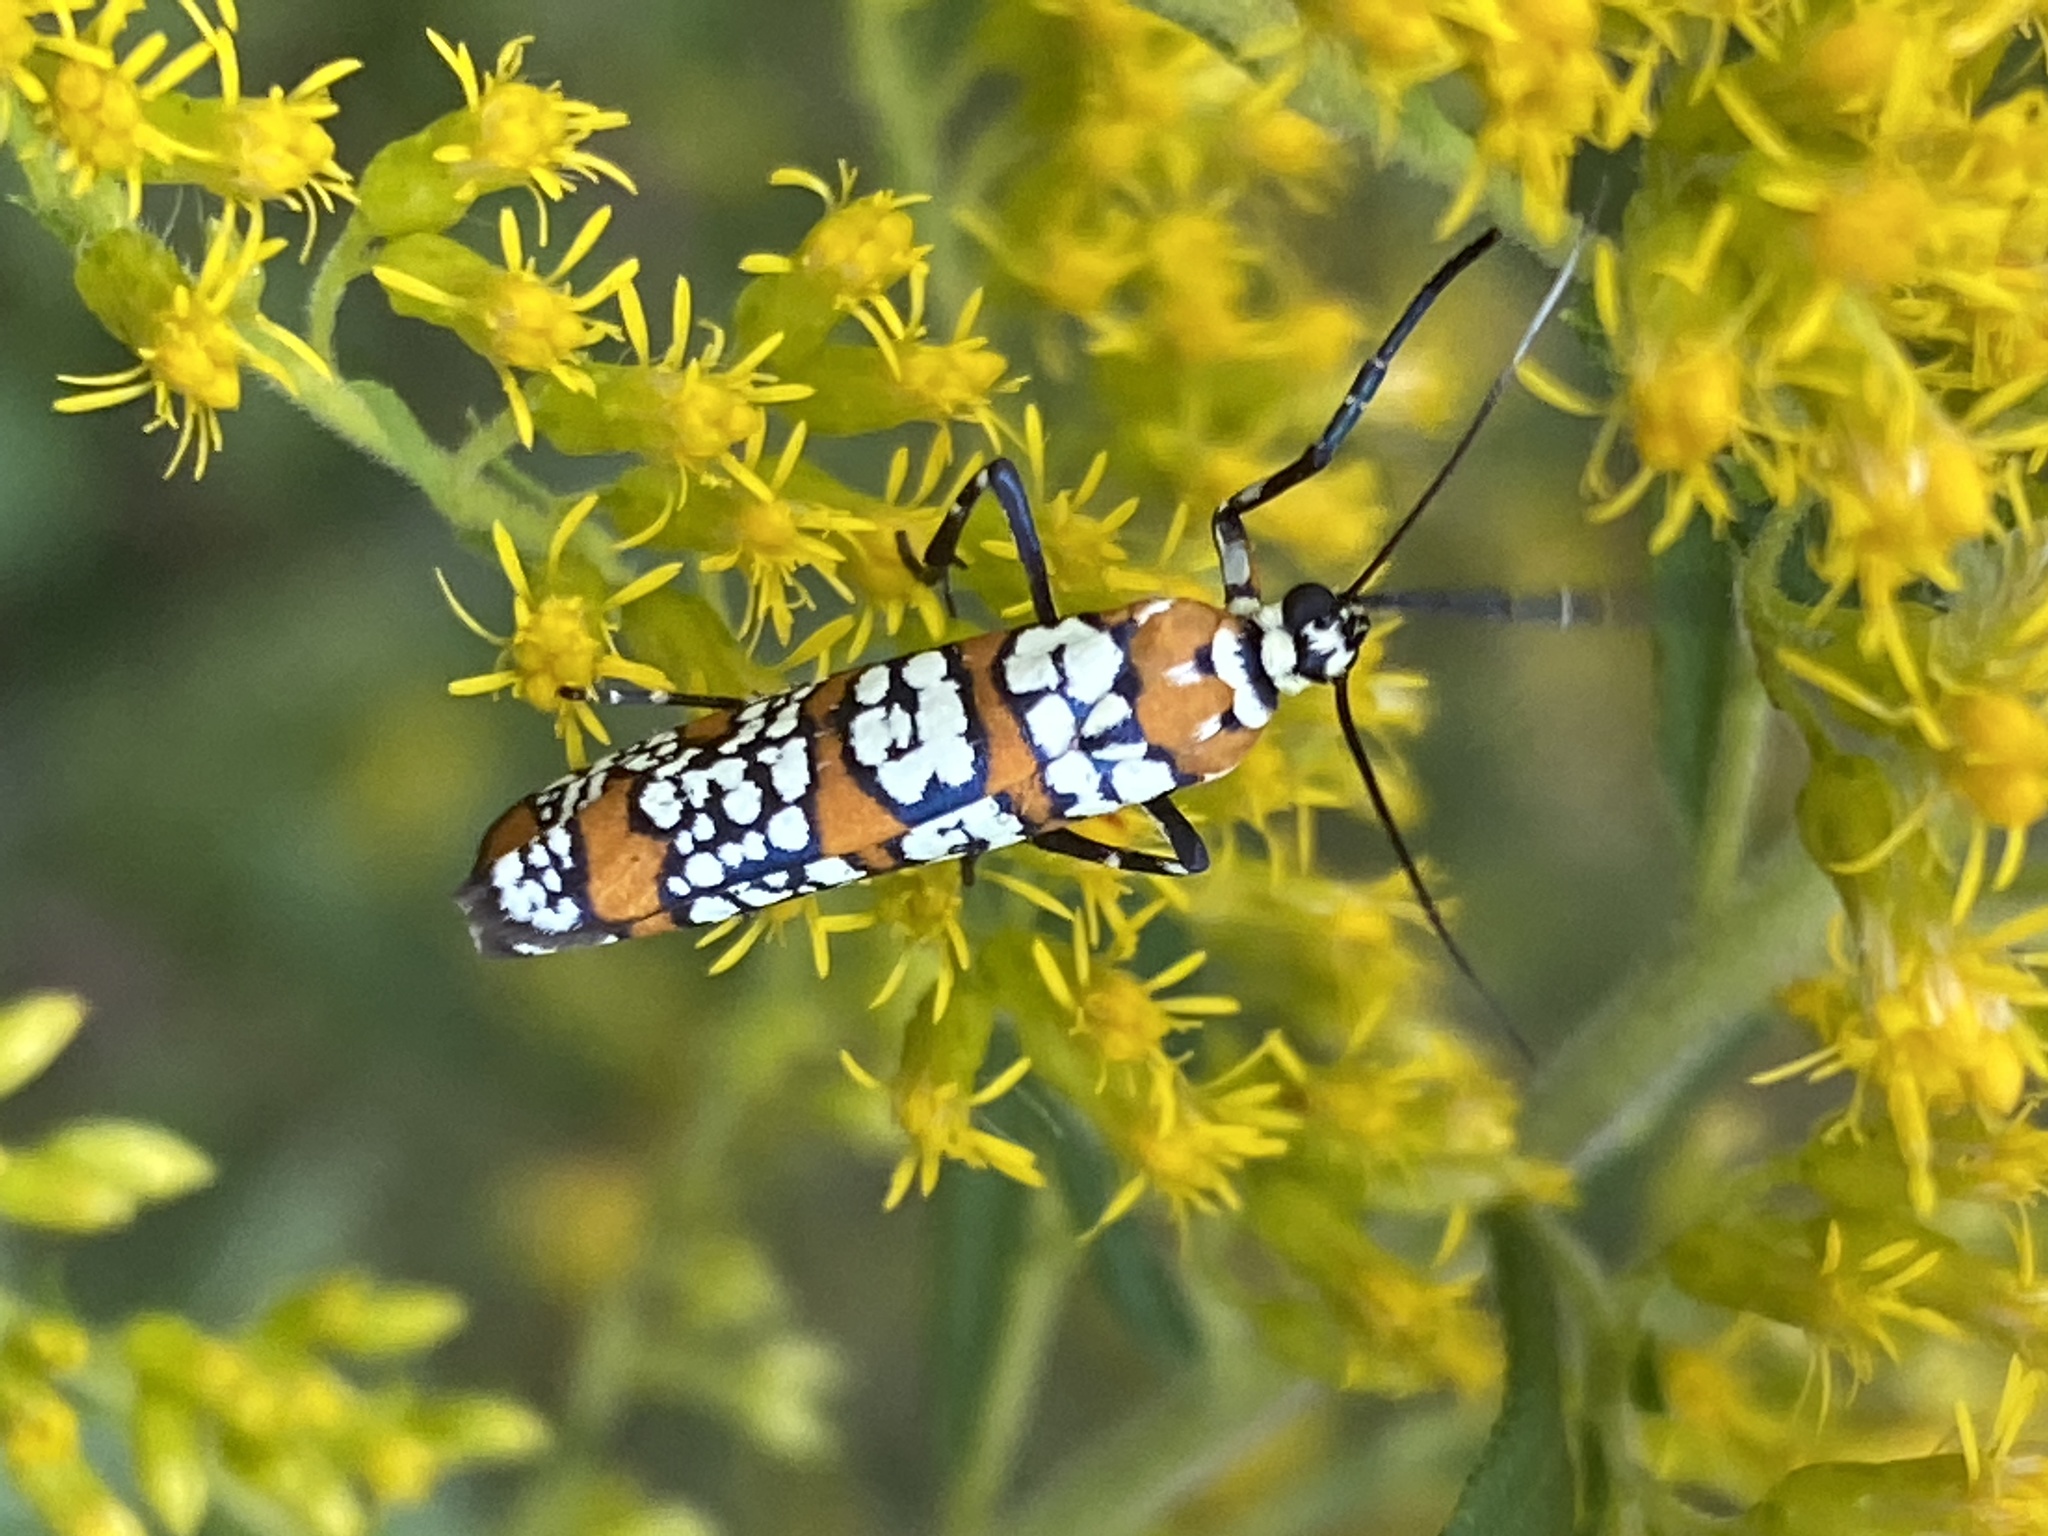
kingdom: Animalia
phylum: Arthropoda
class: Insecta
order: Lepidoptera
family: Attevidae
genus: Atteva
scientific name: Atteva punctella
